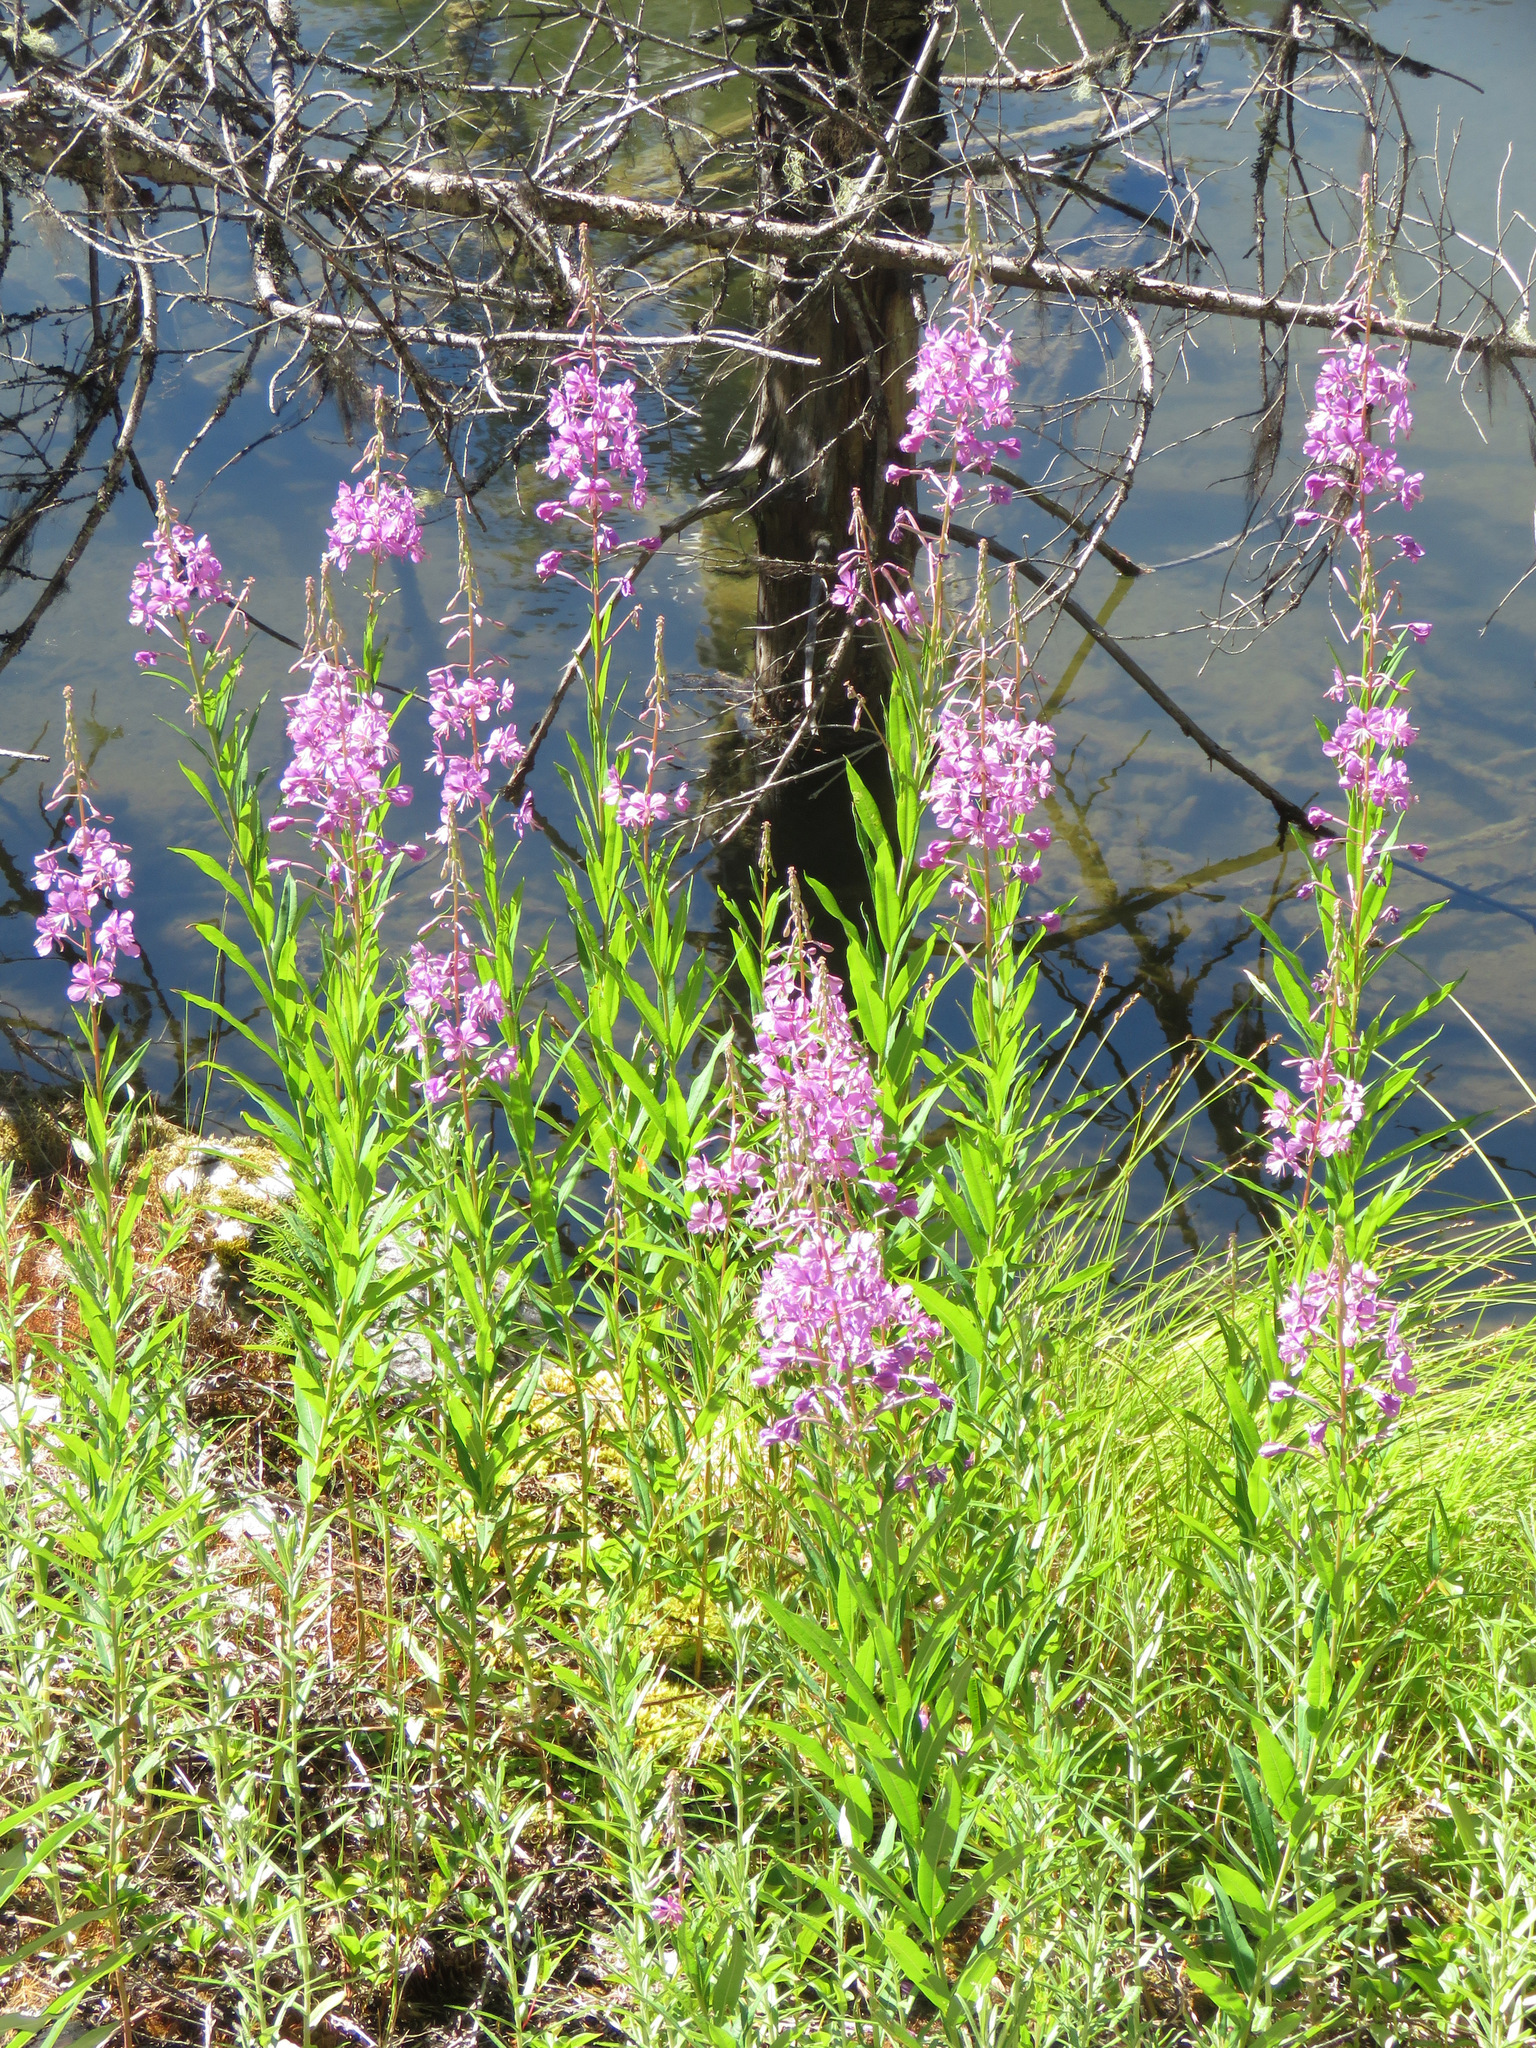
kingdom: Plantae
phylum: Tracheophyta
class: Magnoliopsida
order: Myrtales
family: Onagraceae
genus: Chamaenerion
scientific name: Chamaenerion angustifolium
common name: Fireweed
